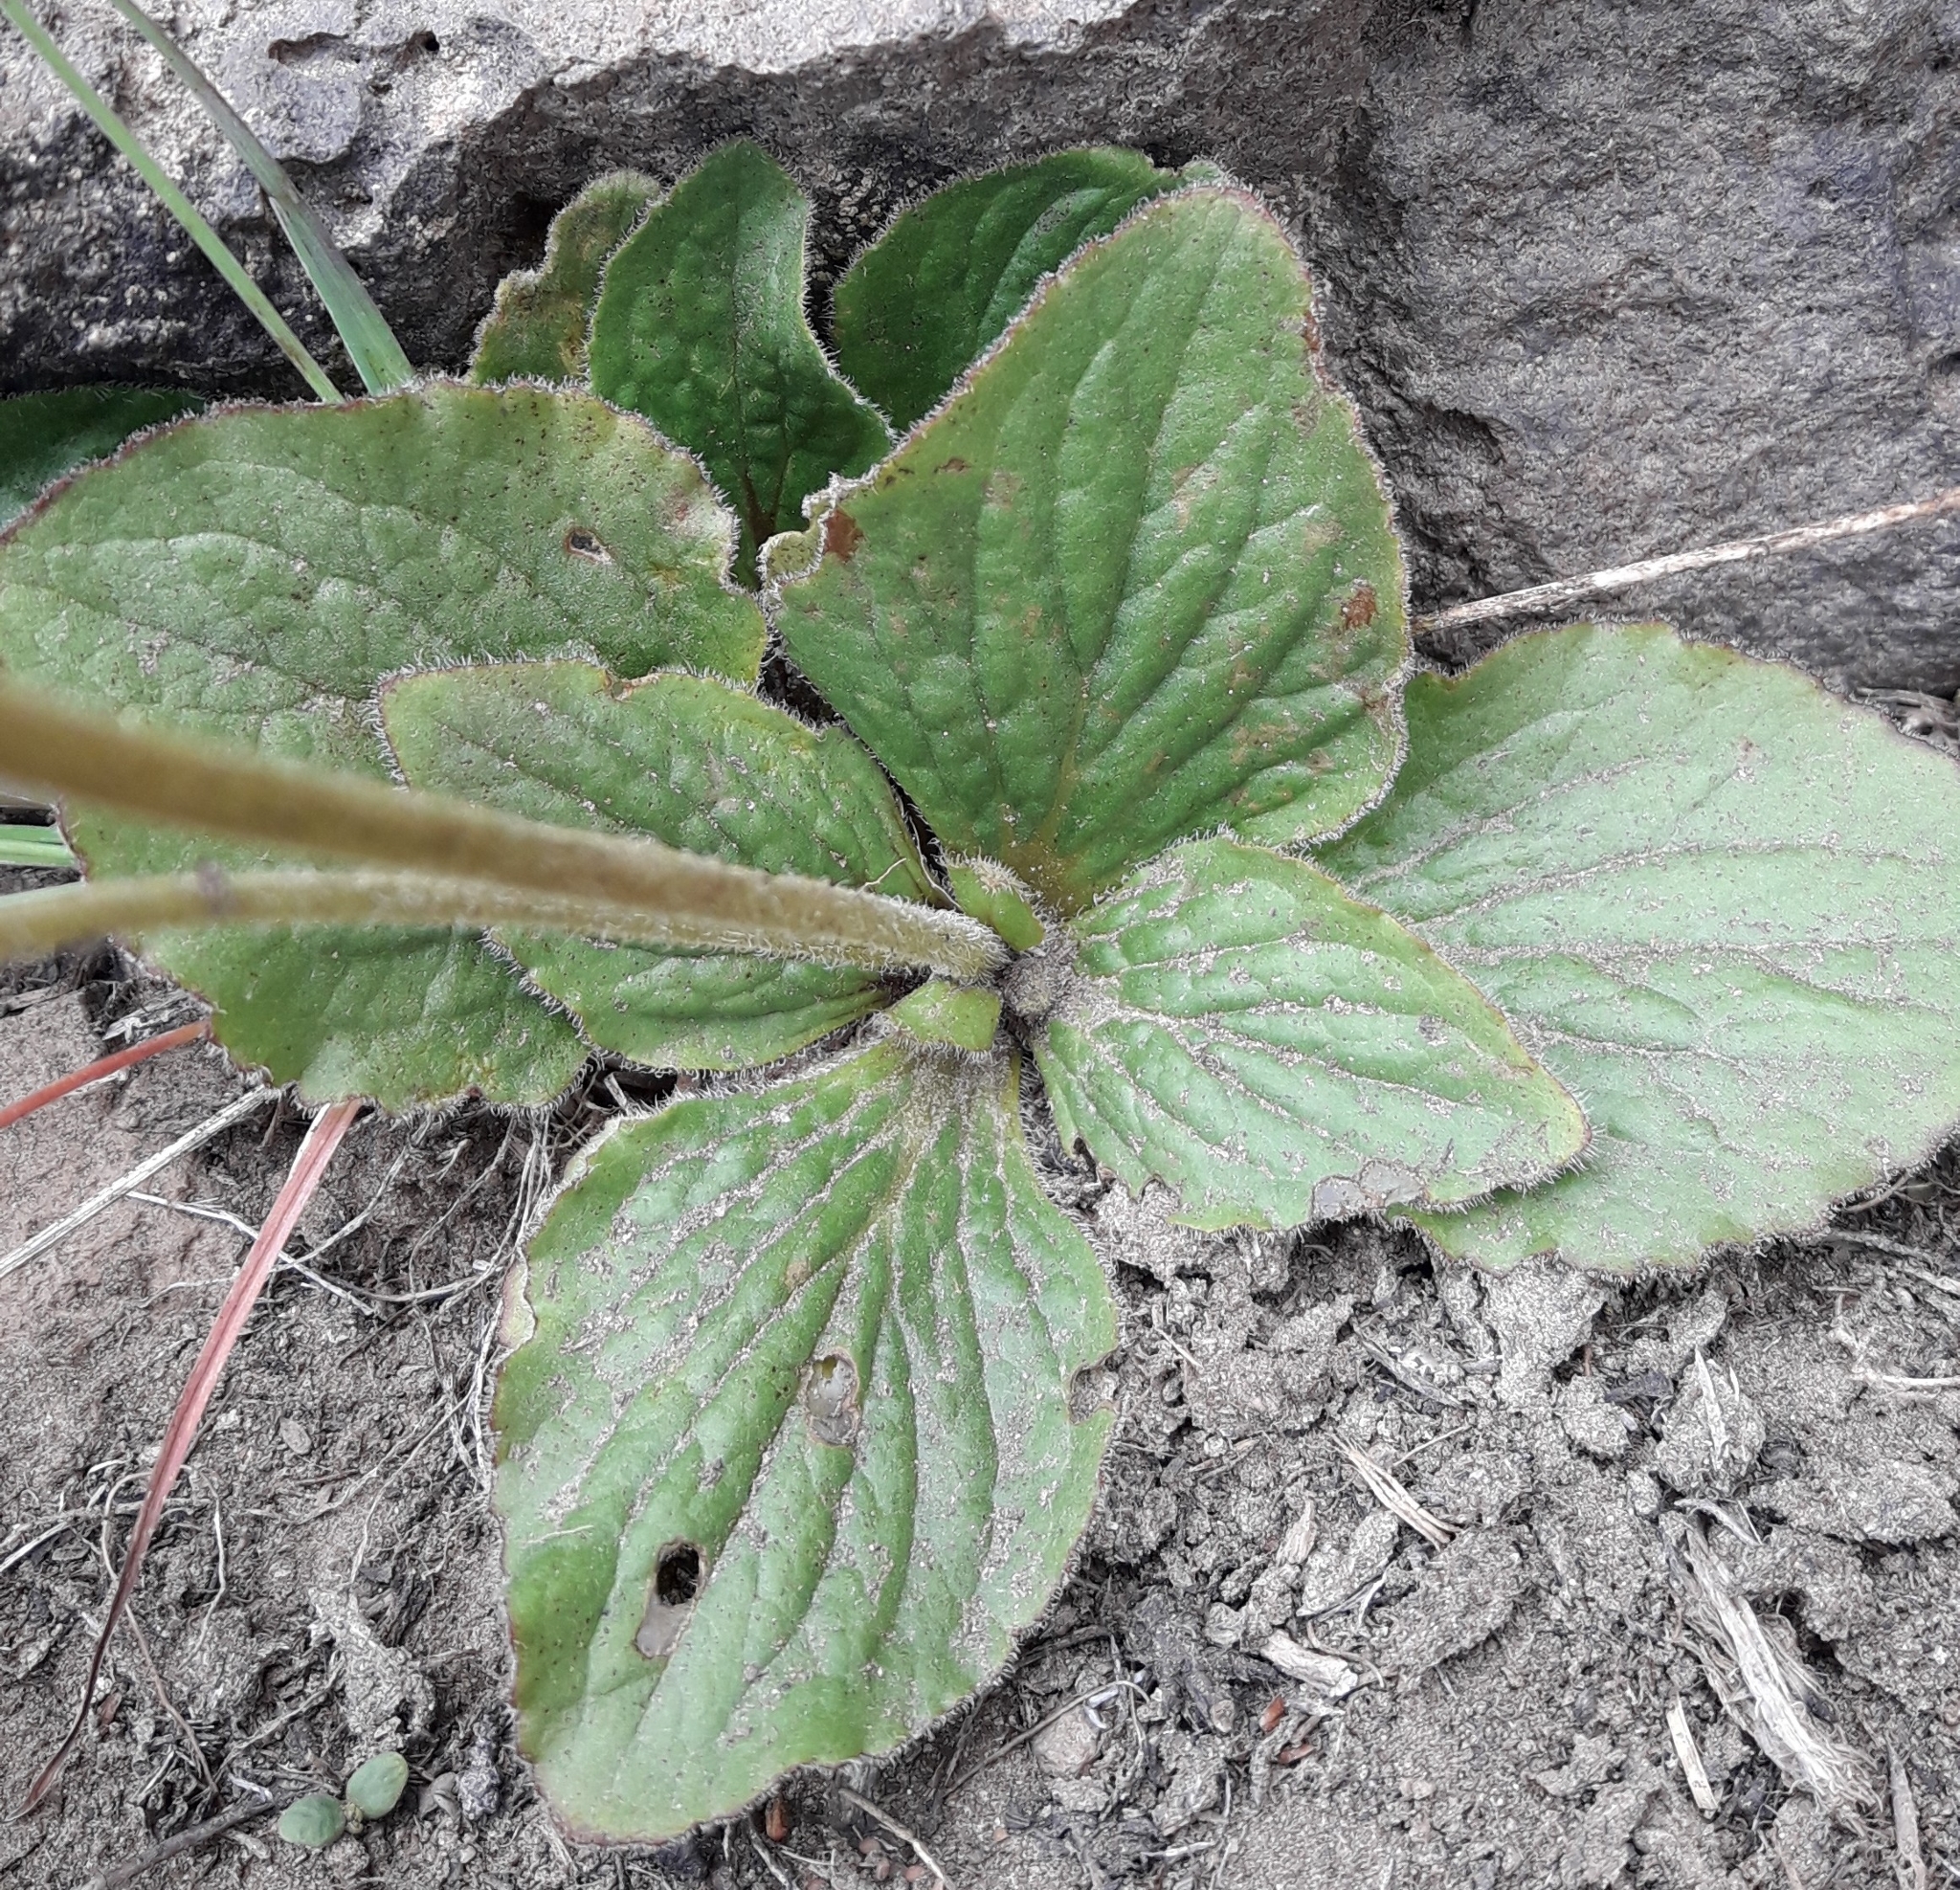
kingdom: Plantae
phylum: Tracheophyta
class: Magnoliopsida
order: Lamiales
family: Calceolariaceae
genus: Calceolaria
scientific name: Calceolaria biflora
